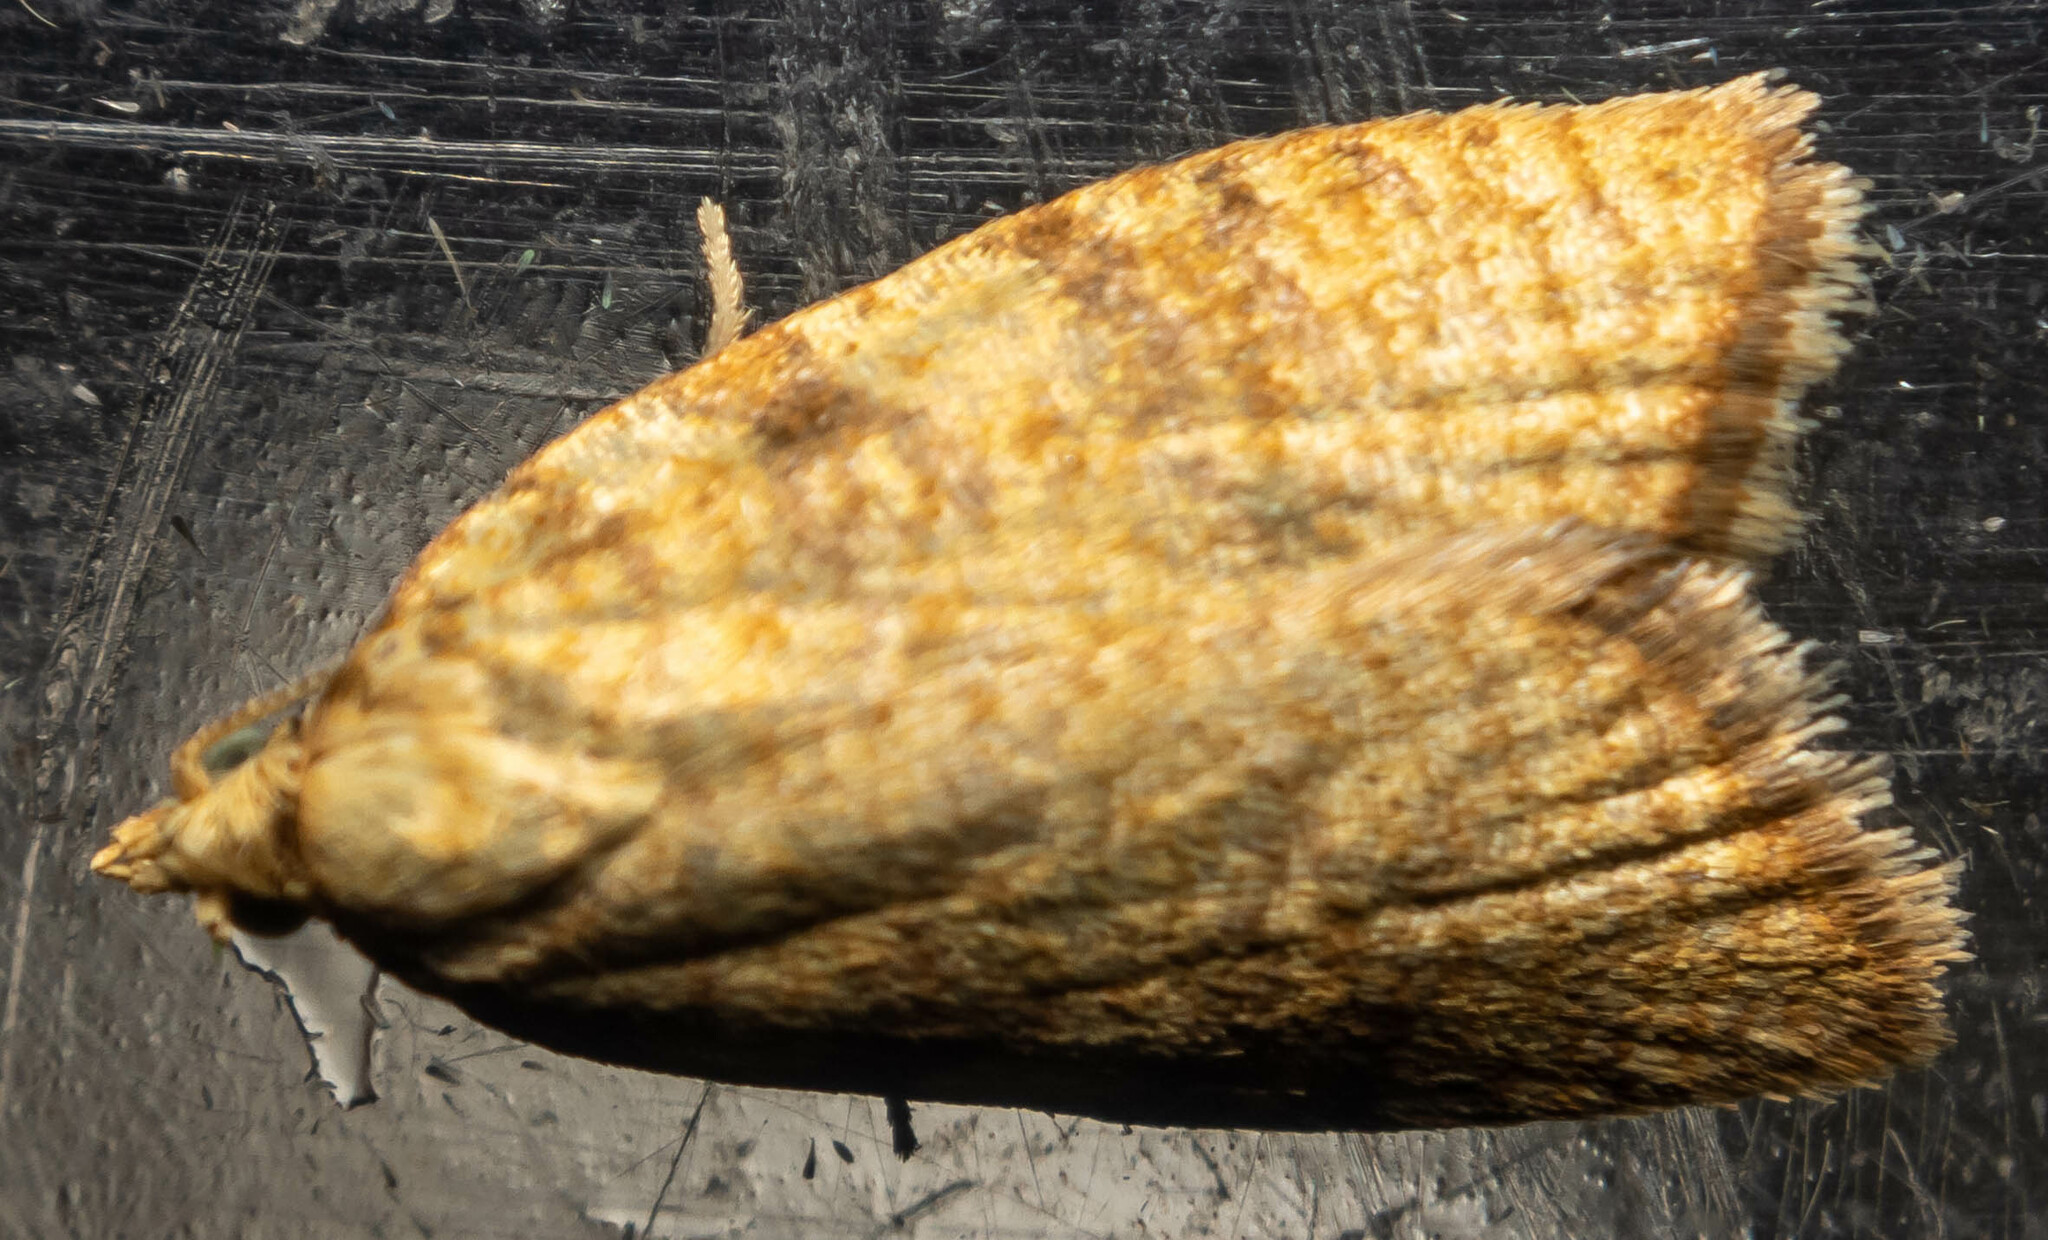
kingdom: Animalia
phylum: Arthropoda
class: Insecta
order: Lepidoptera
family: Tortricidae
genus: Aleimma
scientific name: Aleimma loeflingiana
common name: Yellow oak button
